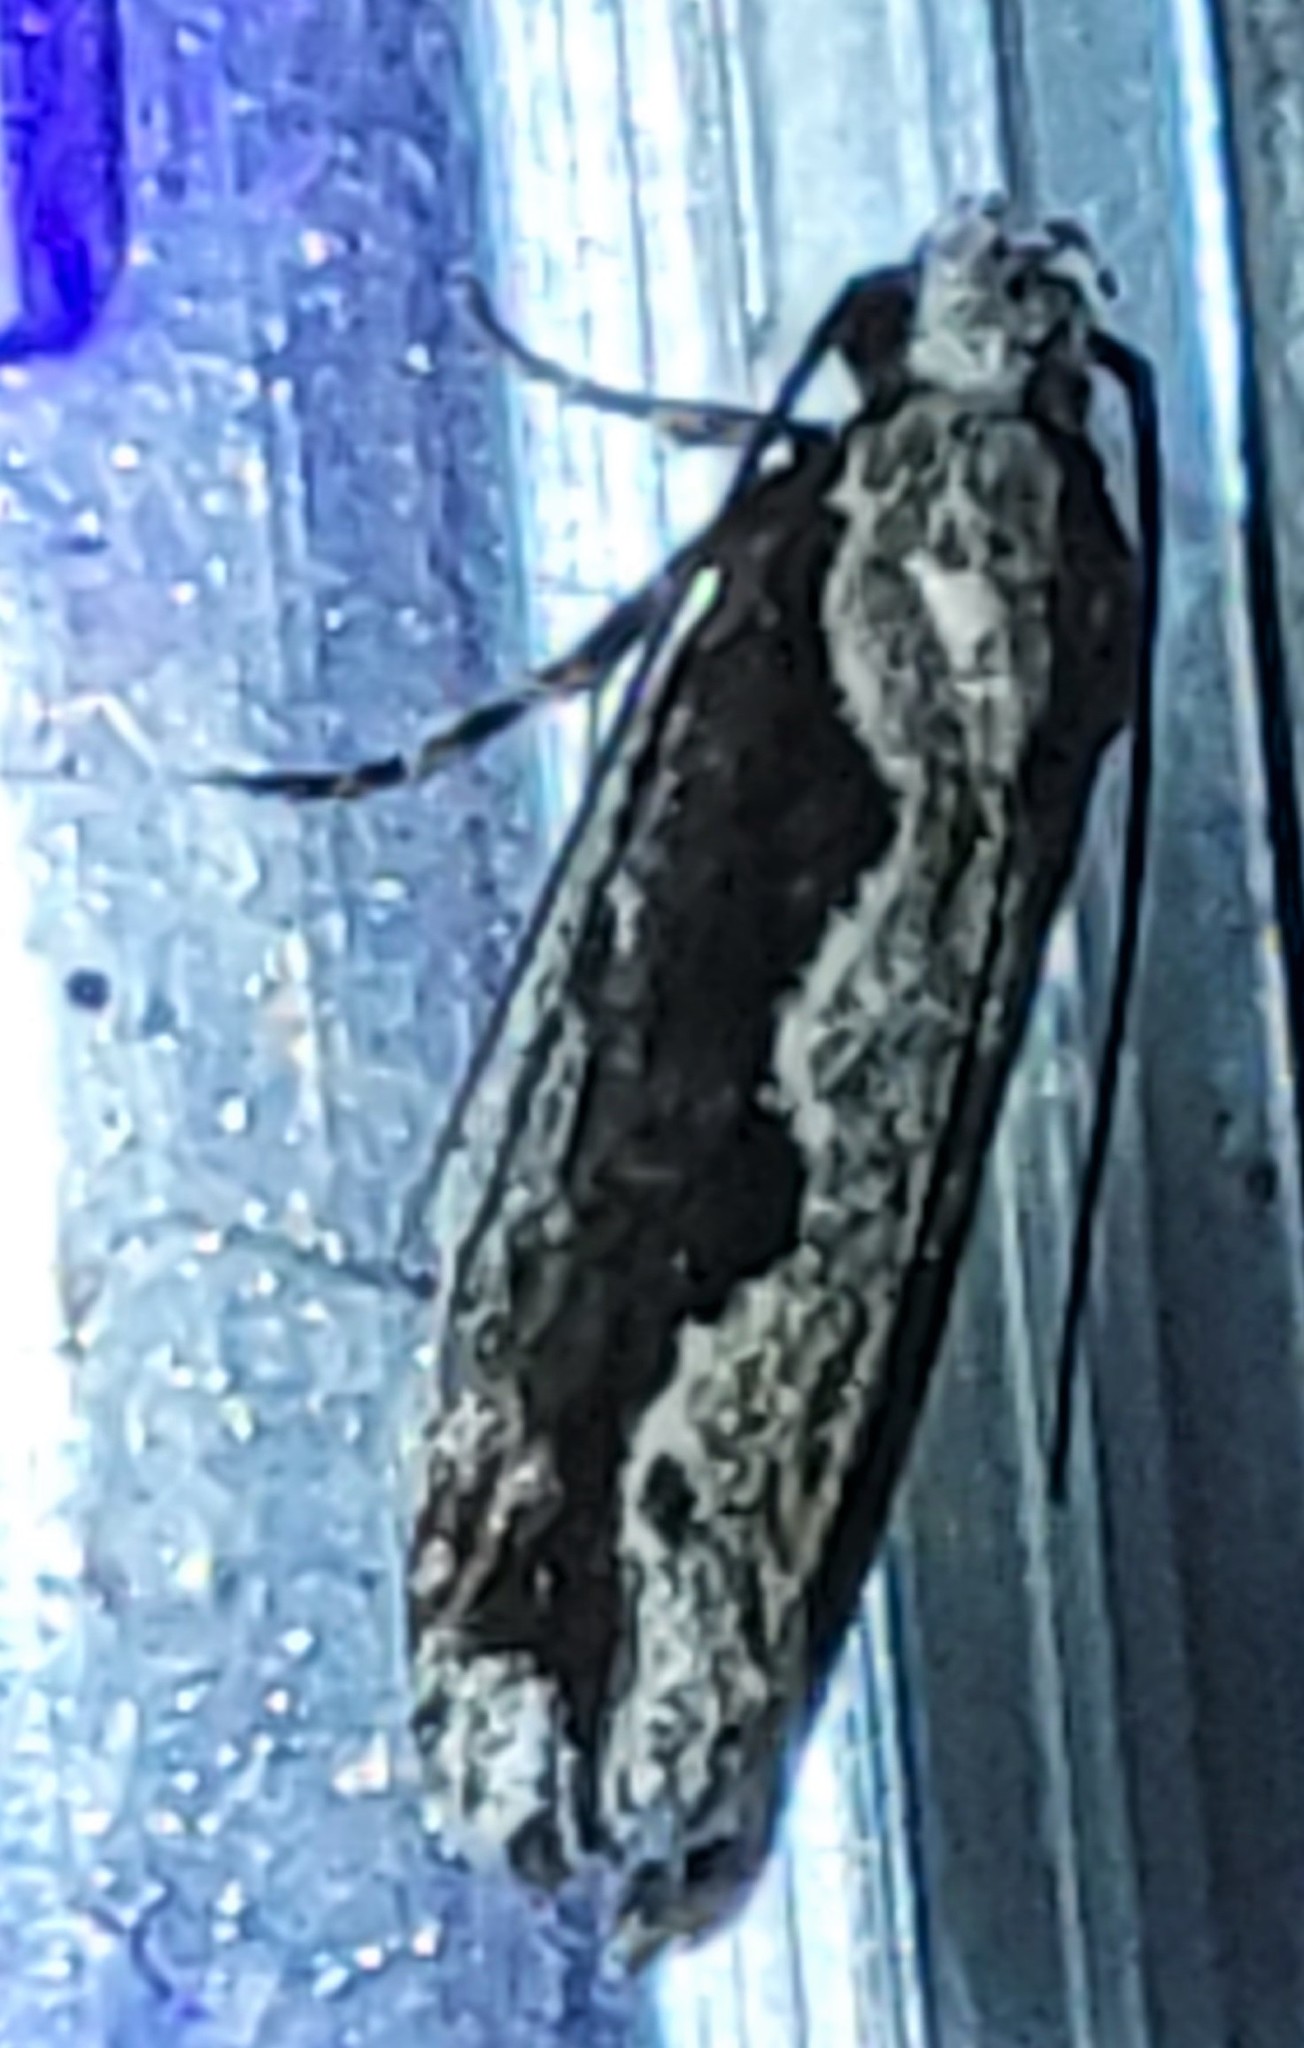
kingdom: Animalia
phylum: Arthropoda
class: Insecta
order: Lepidoptera
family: Ethmiidae
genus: Ethmia
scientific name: Ethmia semiombra
